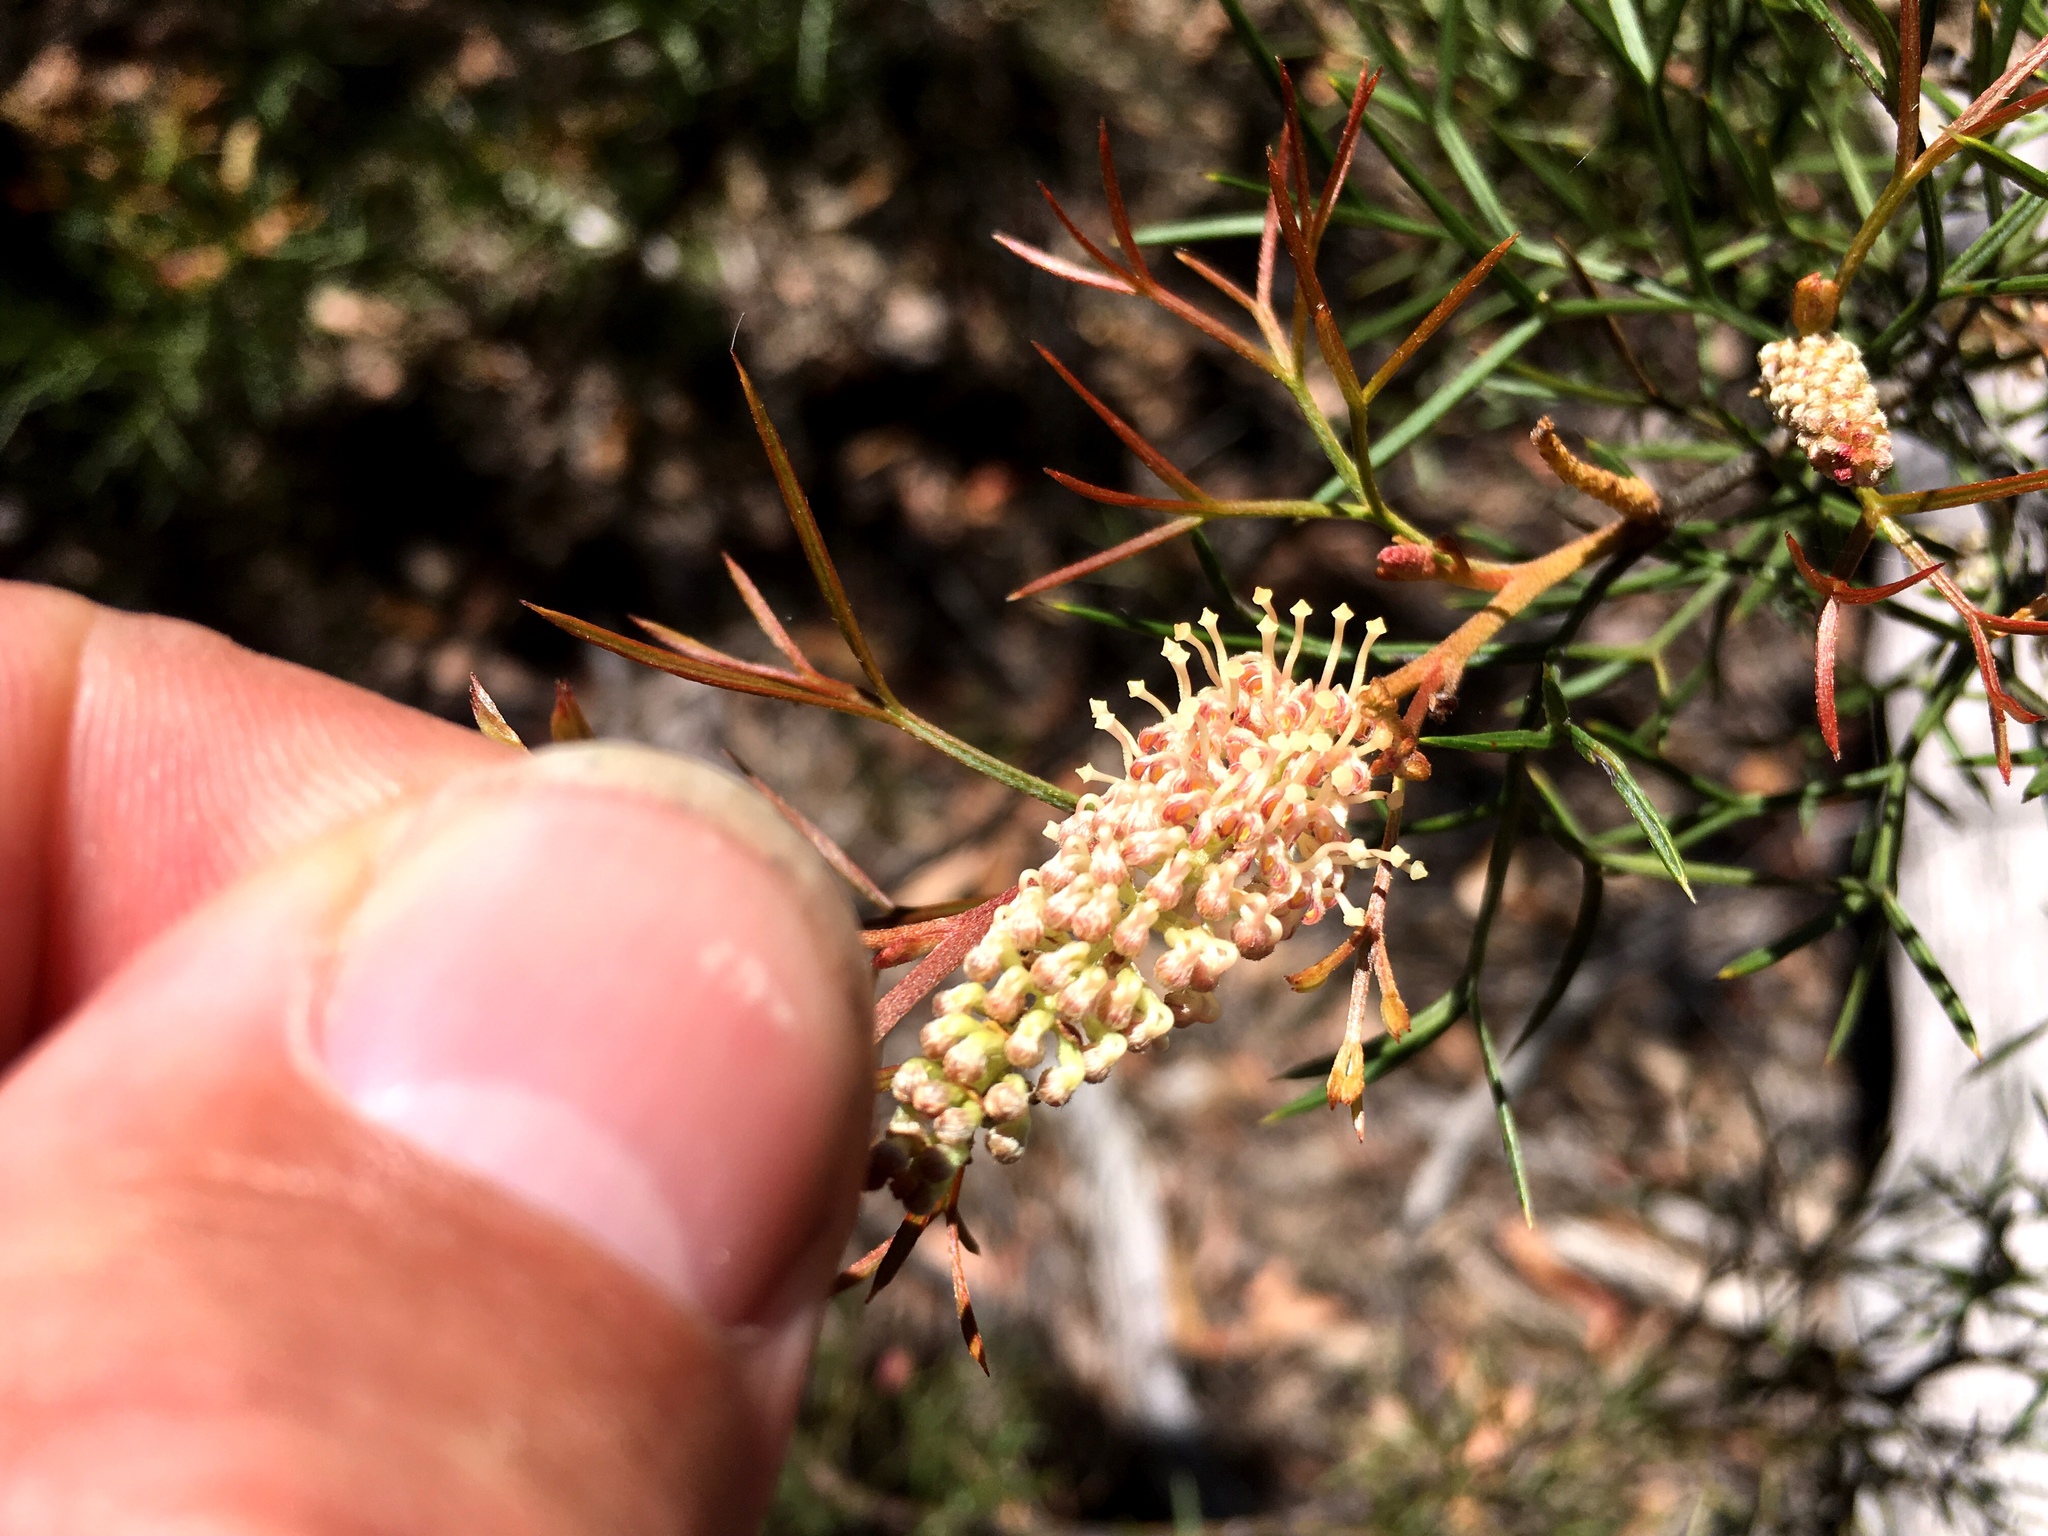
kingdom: Plantae
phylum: Tracheophyta
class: Magnoliopsida
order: Proteales
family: Proteaceae
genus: Grevillea
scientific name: Grevillea raybrownii
